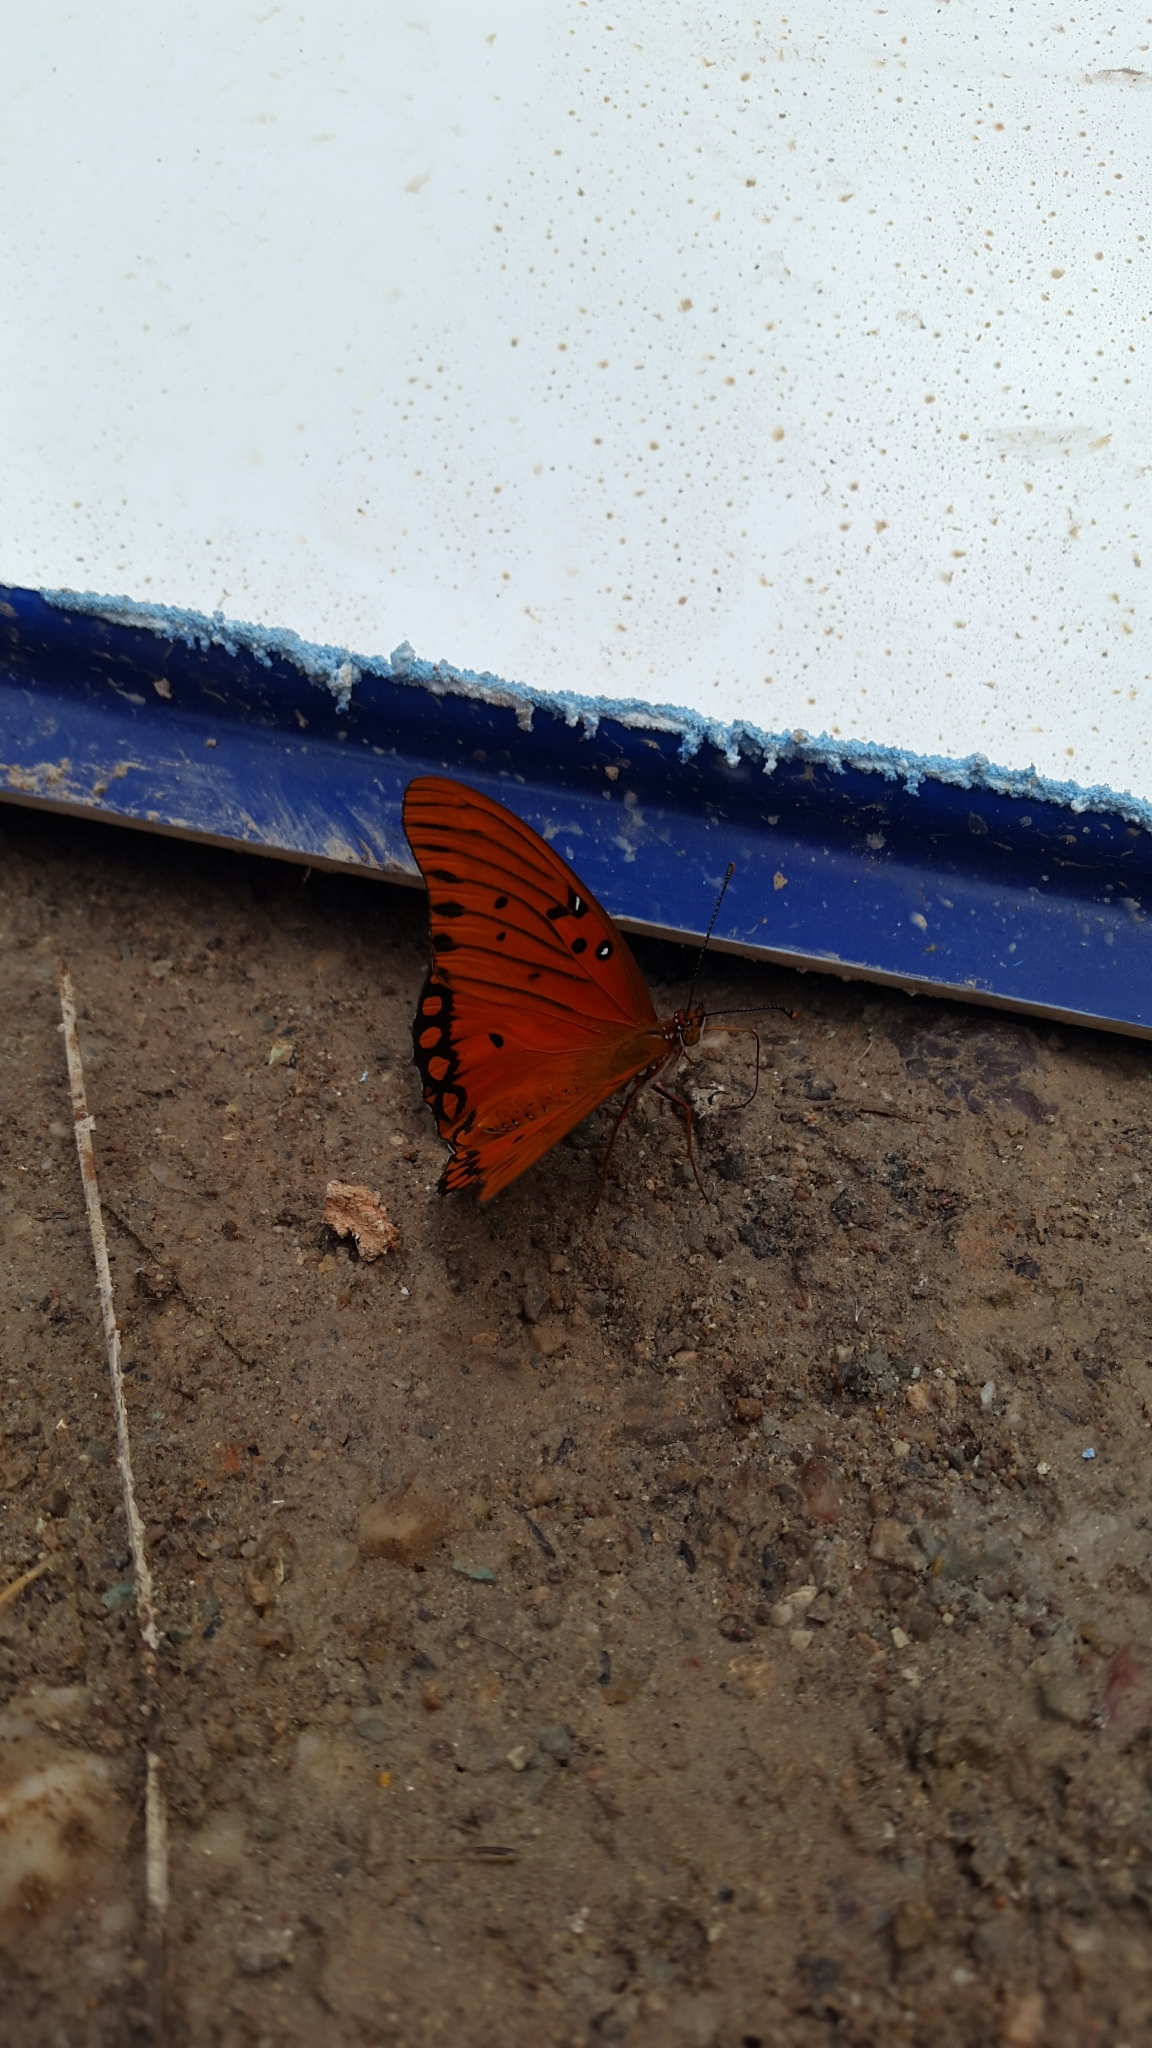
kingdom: Animalia
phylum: Arthropoda
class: Insecta
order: Lepidoptera
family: Nymphalidae
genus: Dione
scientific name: Dione vanillae
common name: Gulf fritillary
